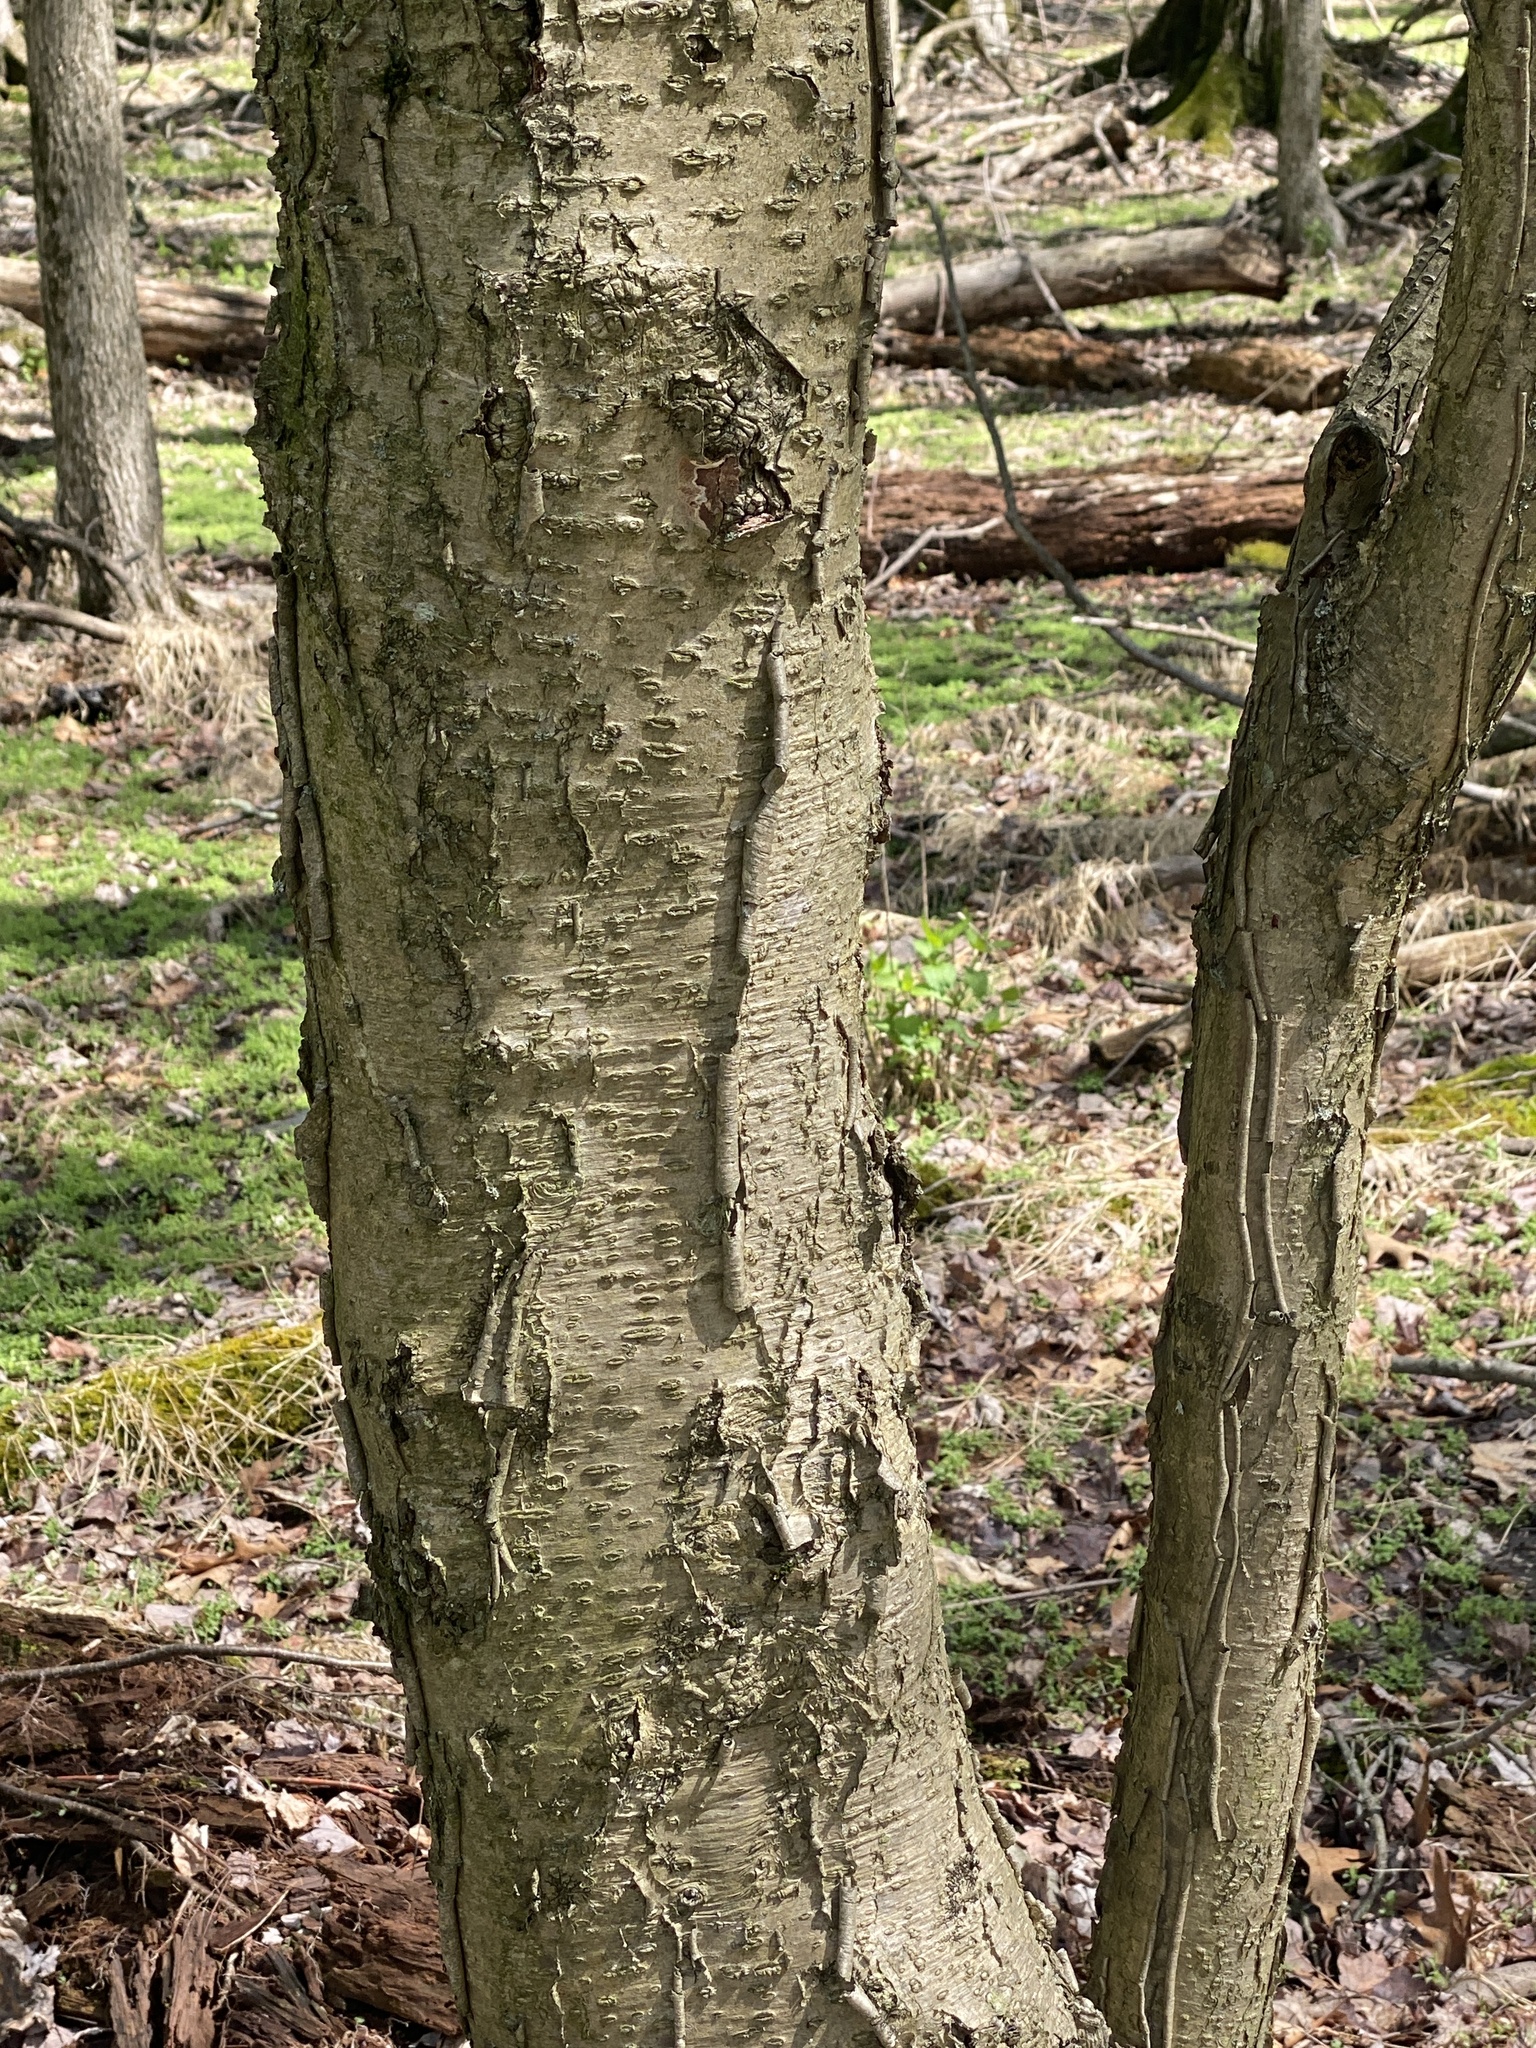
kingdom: Plantae
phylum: Tracheophyta
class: Magnoliopsida
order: Fagales
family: Betulaceae
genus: Betula
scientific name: Betula alleghaniensis
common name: Yellow birch
